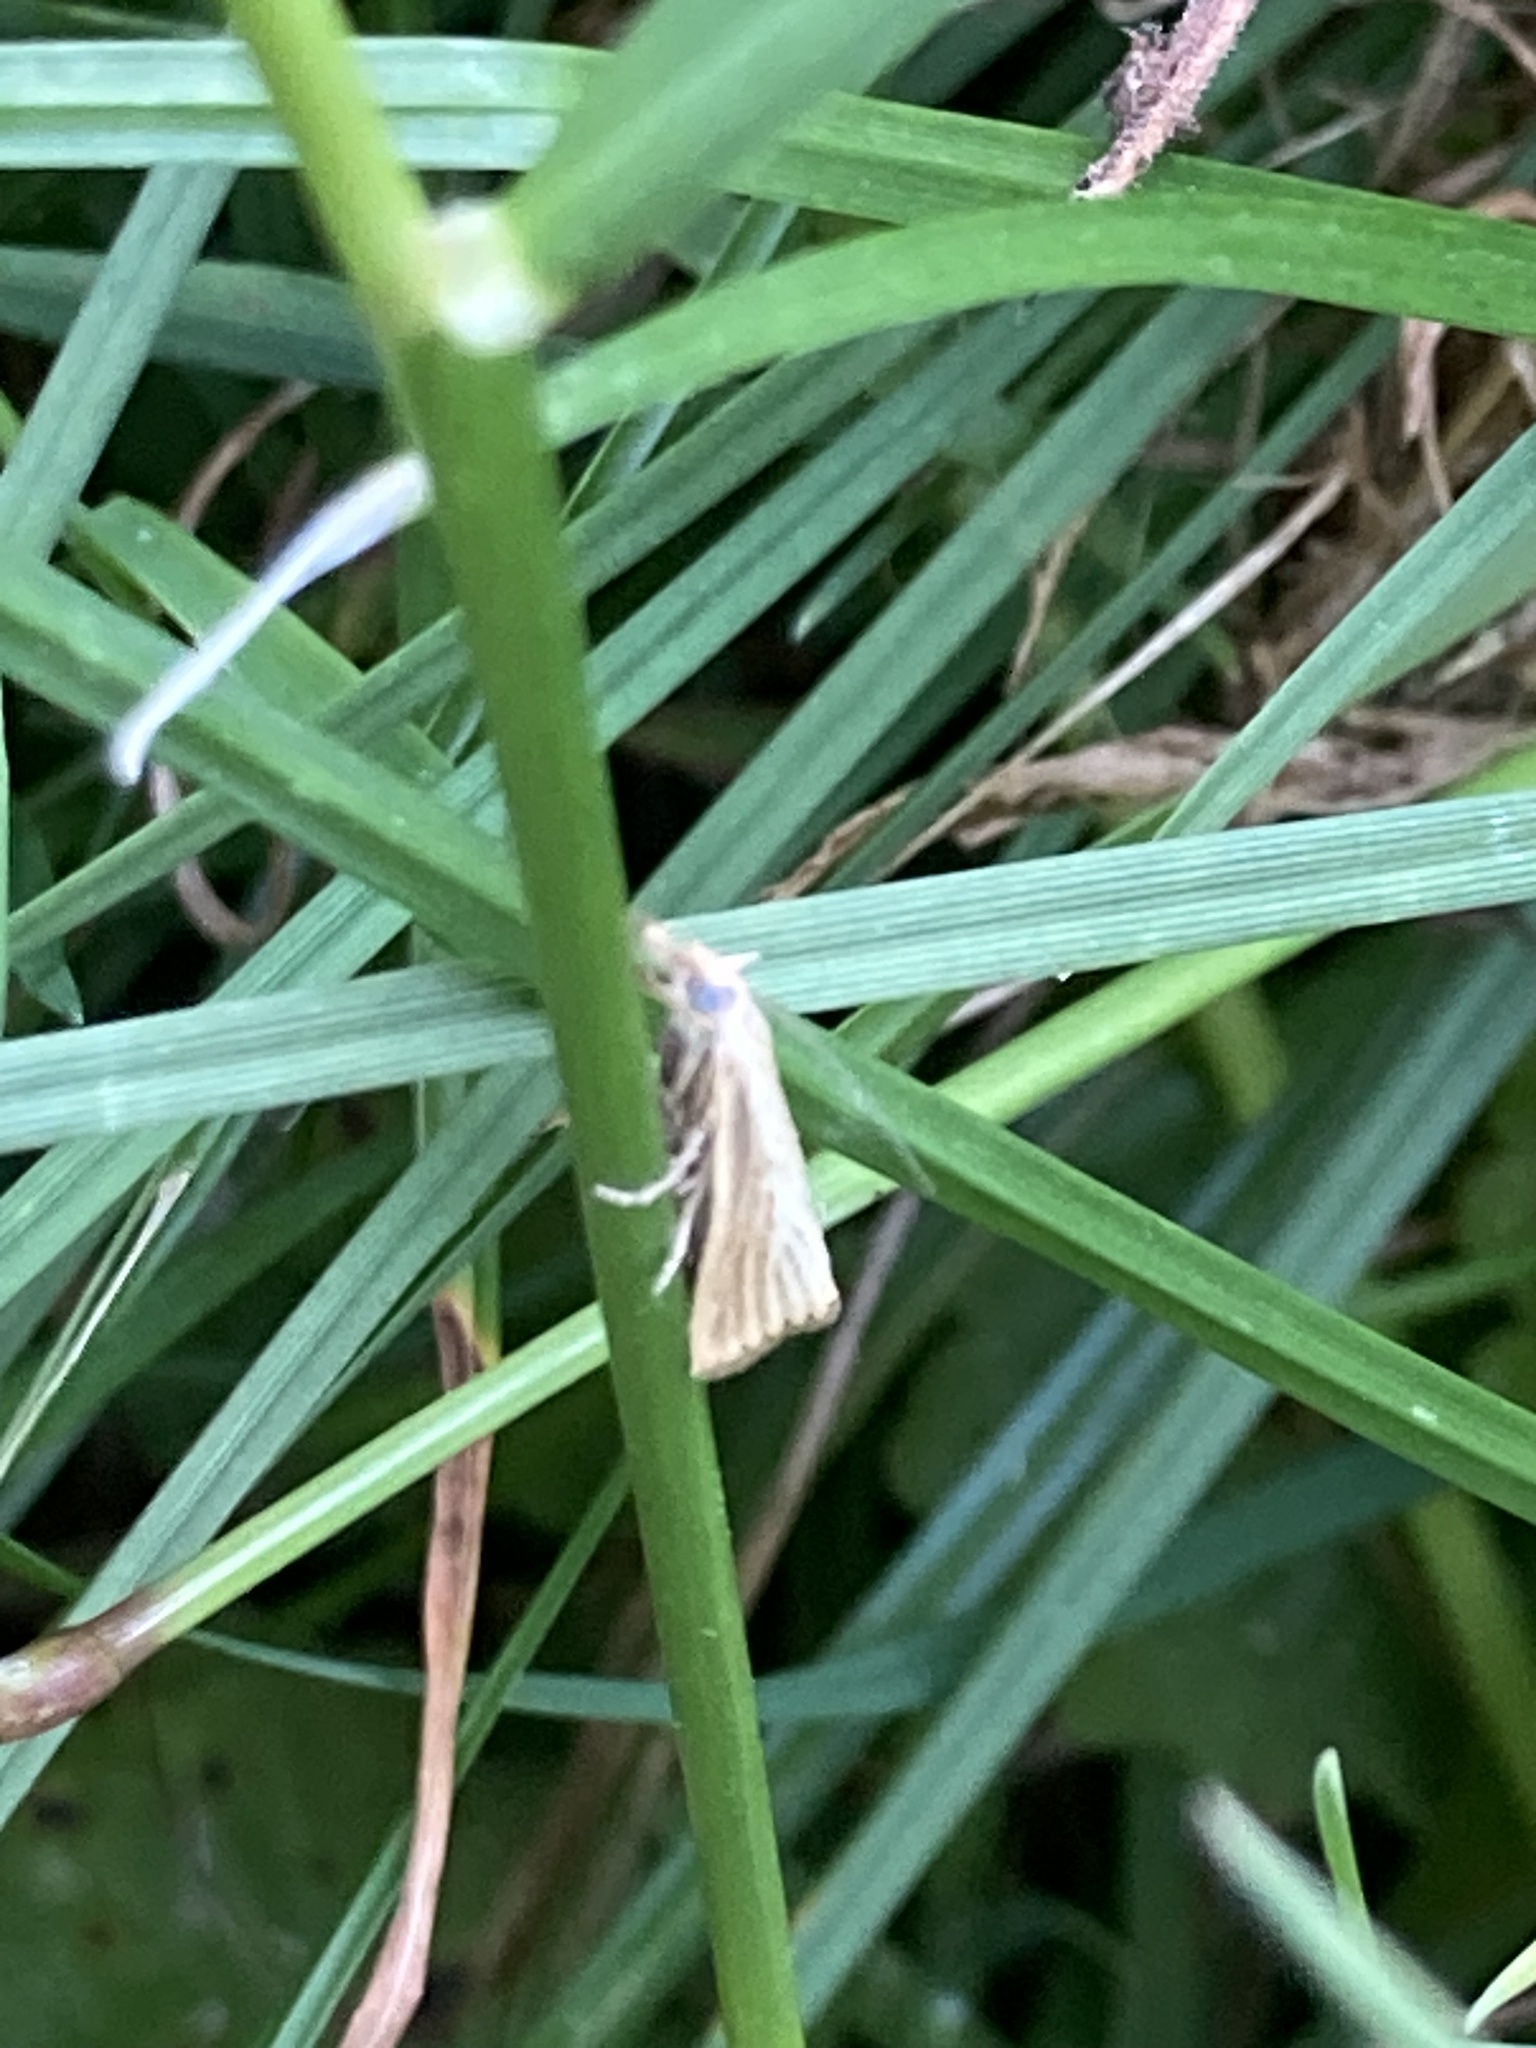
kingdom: Animalia
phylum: Arthropoda
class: Insecta
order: Lepidoptera
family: Crambidae
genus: Agriphila
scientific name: Agriphila straminella
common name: Straw grass-veneer
